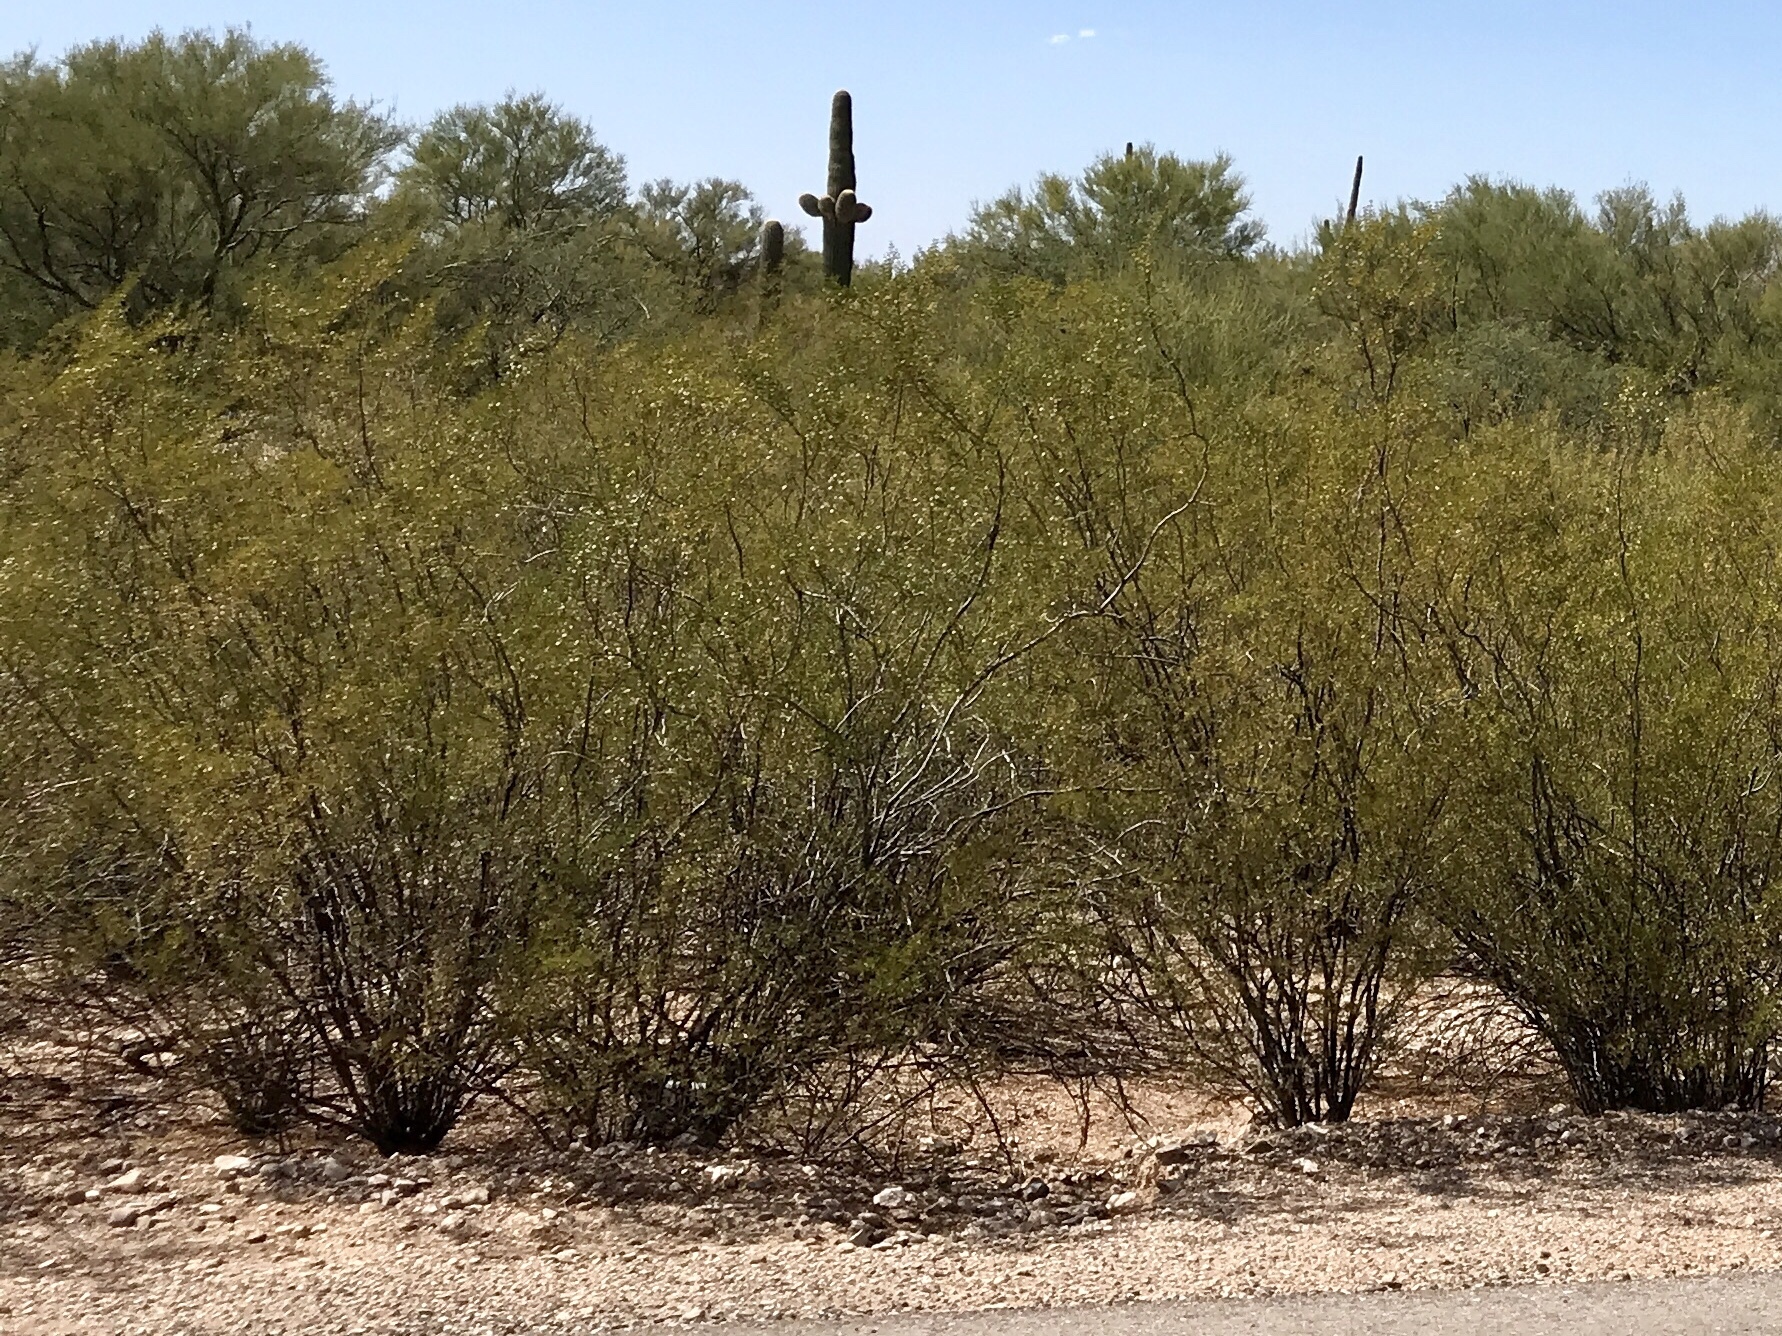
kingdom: Plantae
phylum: Tracheophyta
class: Magnoliopsida
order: Zygophyllales
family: Zygophyllaceae
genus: Larrea
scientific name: Larrea tridentata
